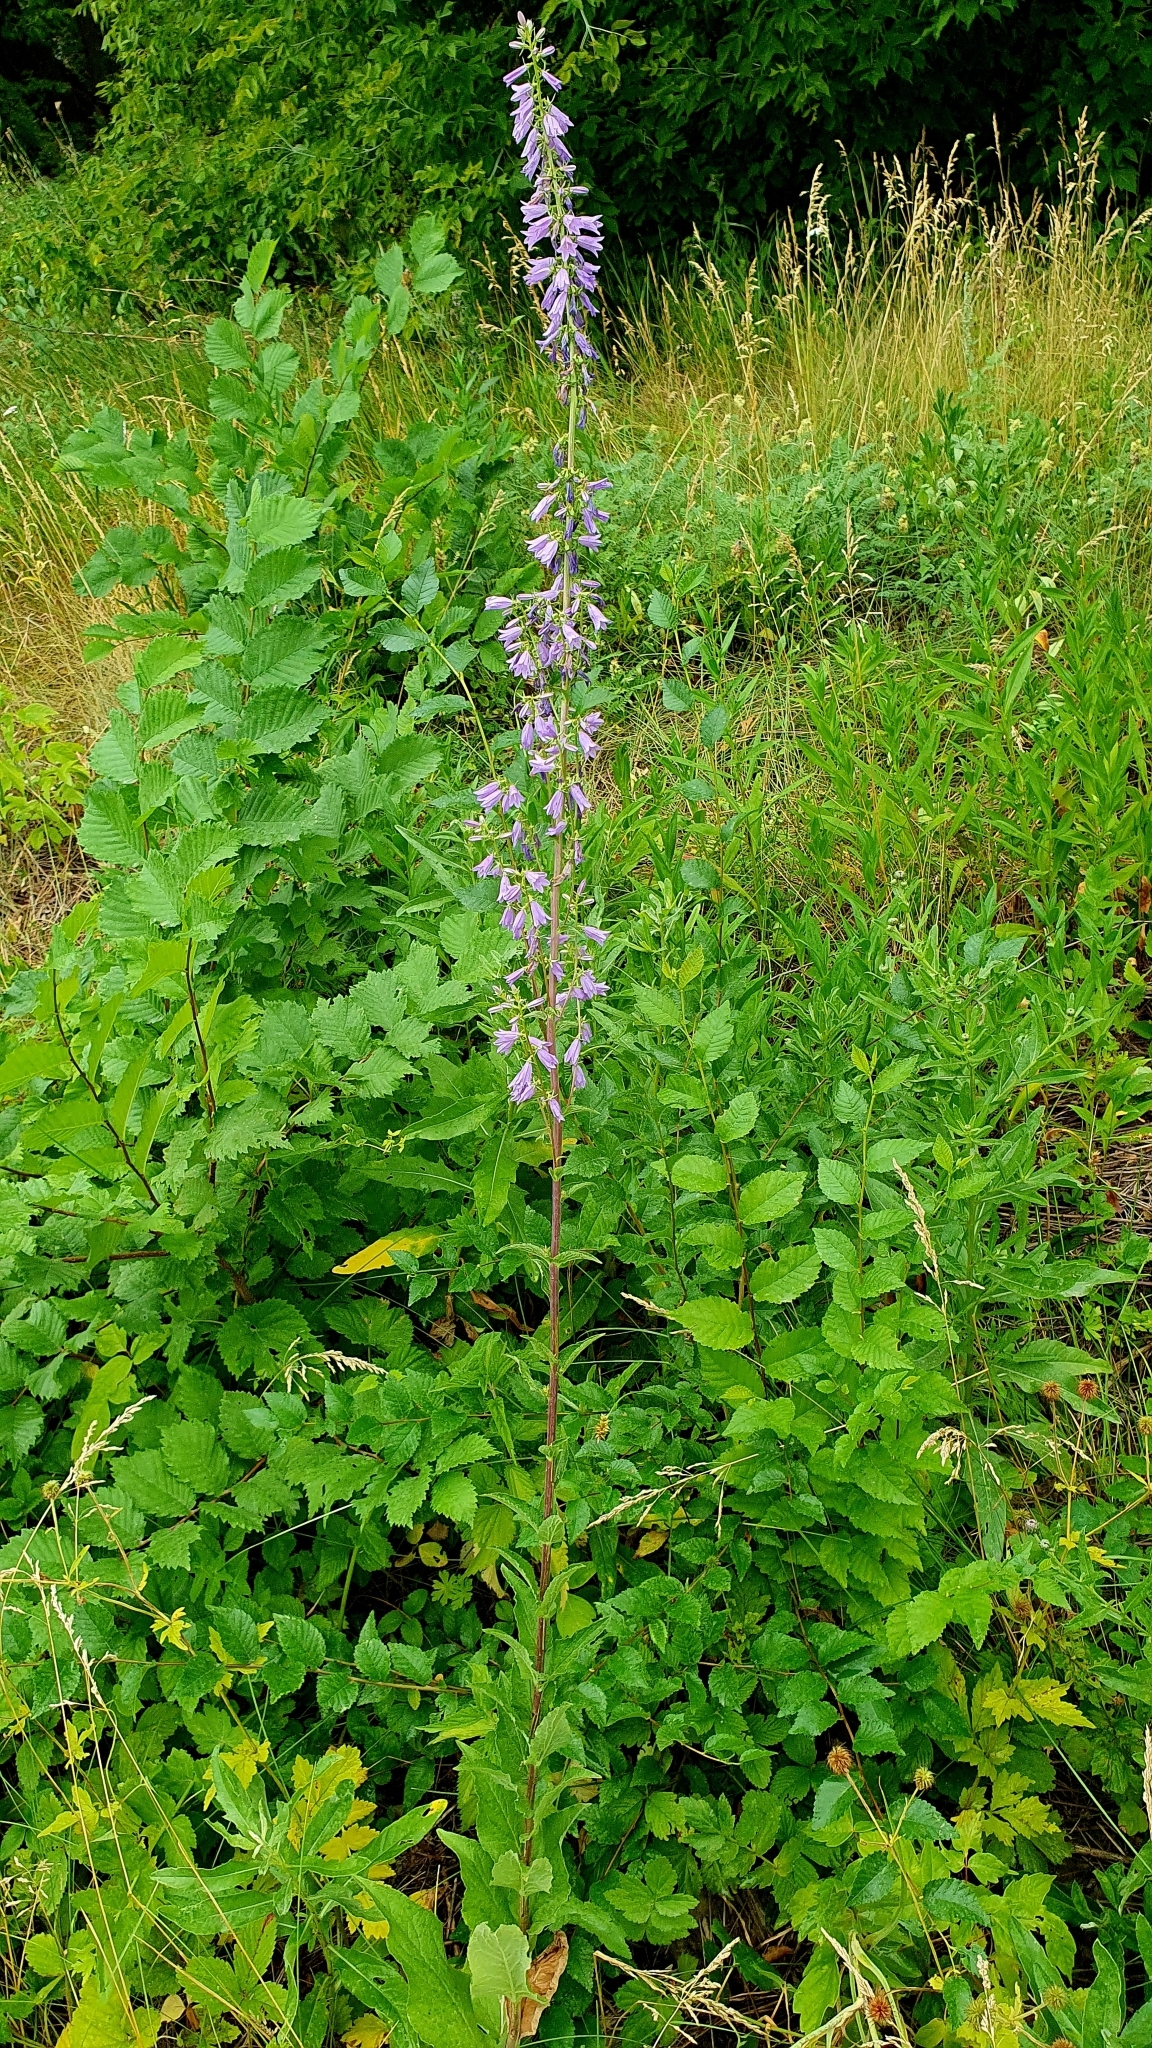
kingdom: Plantae
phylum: Tracheophyta
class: Magnoliopsida
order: Asterales
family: Campanulaceae
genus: Campanula
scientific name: Campanula bononiensis
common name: Pale bellflower
